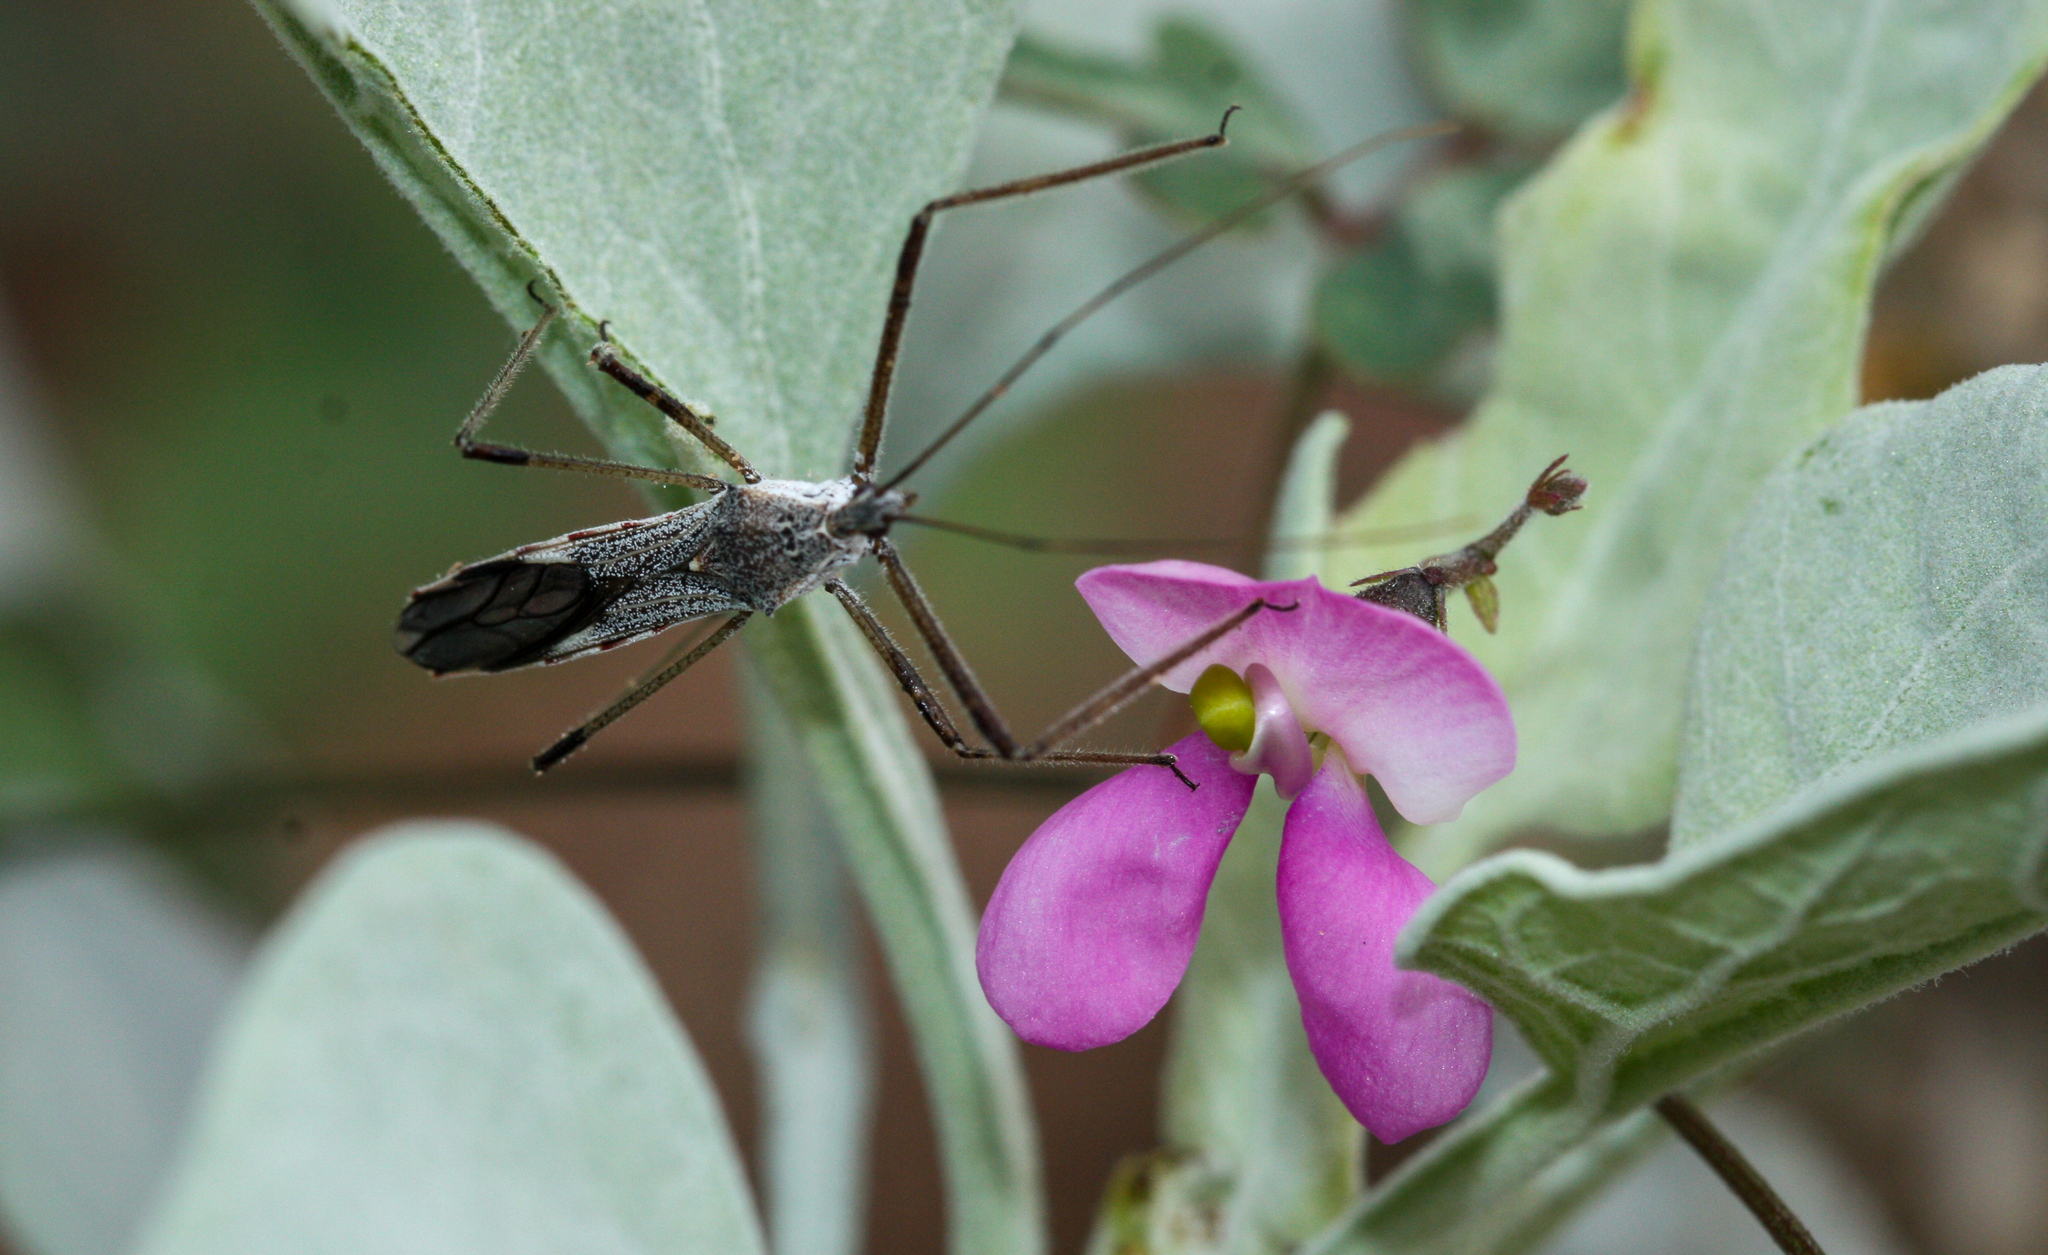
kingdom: Animalia
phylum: Arthropoda
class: Insecta
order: Hemiptera
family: Reduviidae
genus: Zelus
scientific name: Zelus tetracanthus
